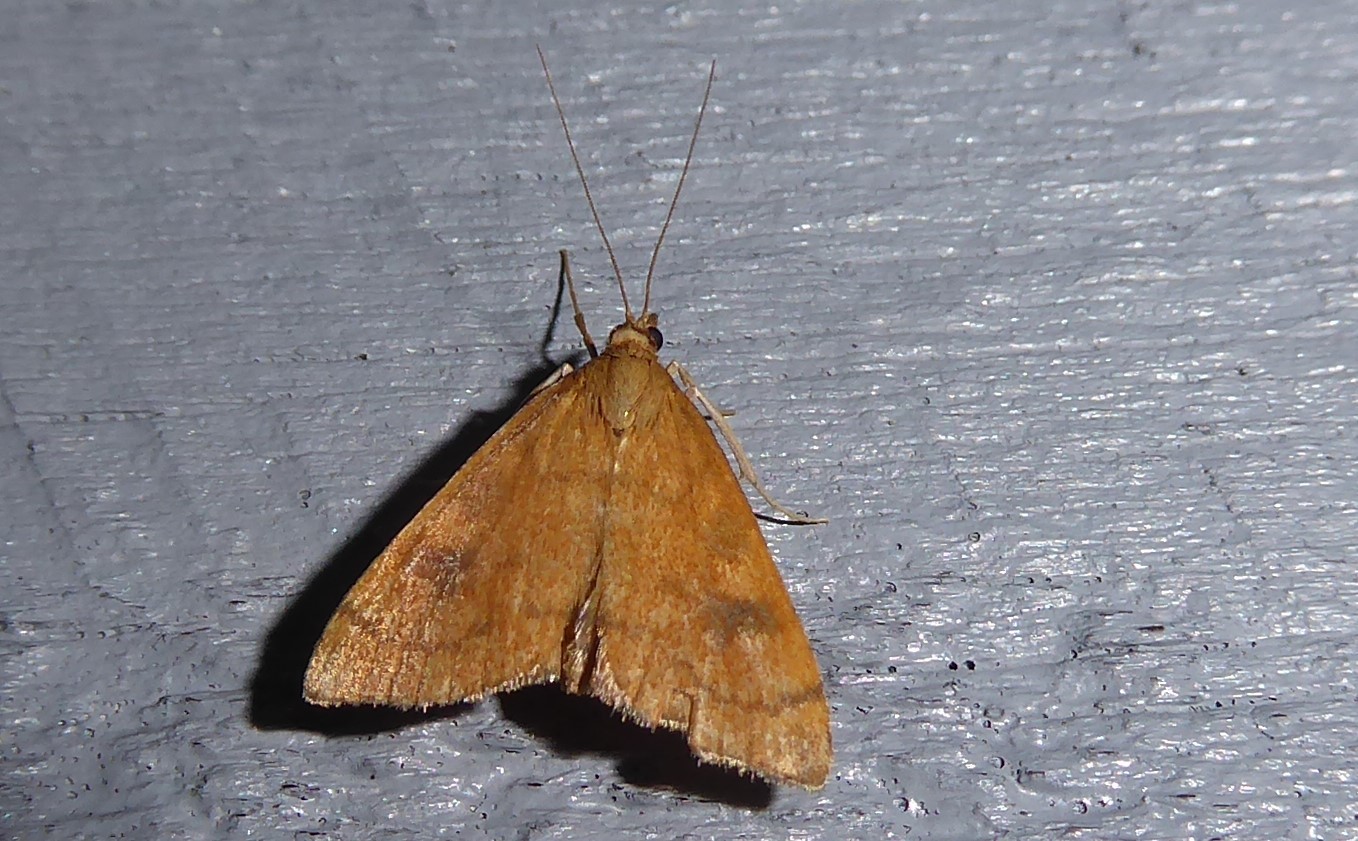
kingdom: Animalia
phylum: Arthropoda
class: Insecta
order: Lepidoptera
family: Crambidae
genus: Udea
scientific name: Udea Mnesictena flavidalis
